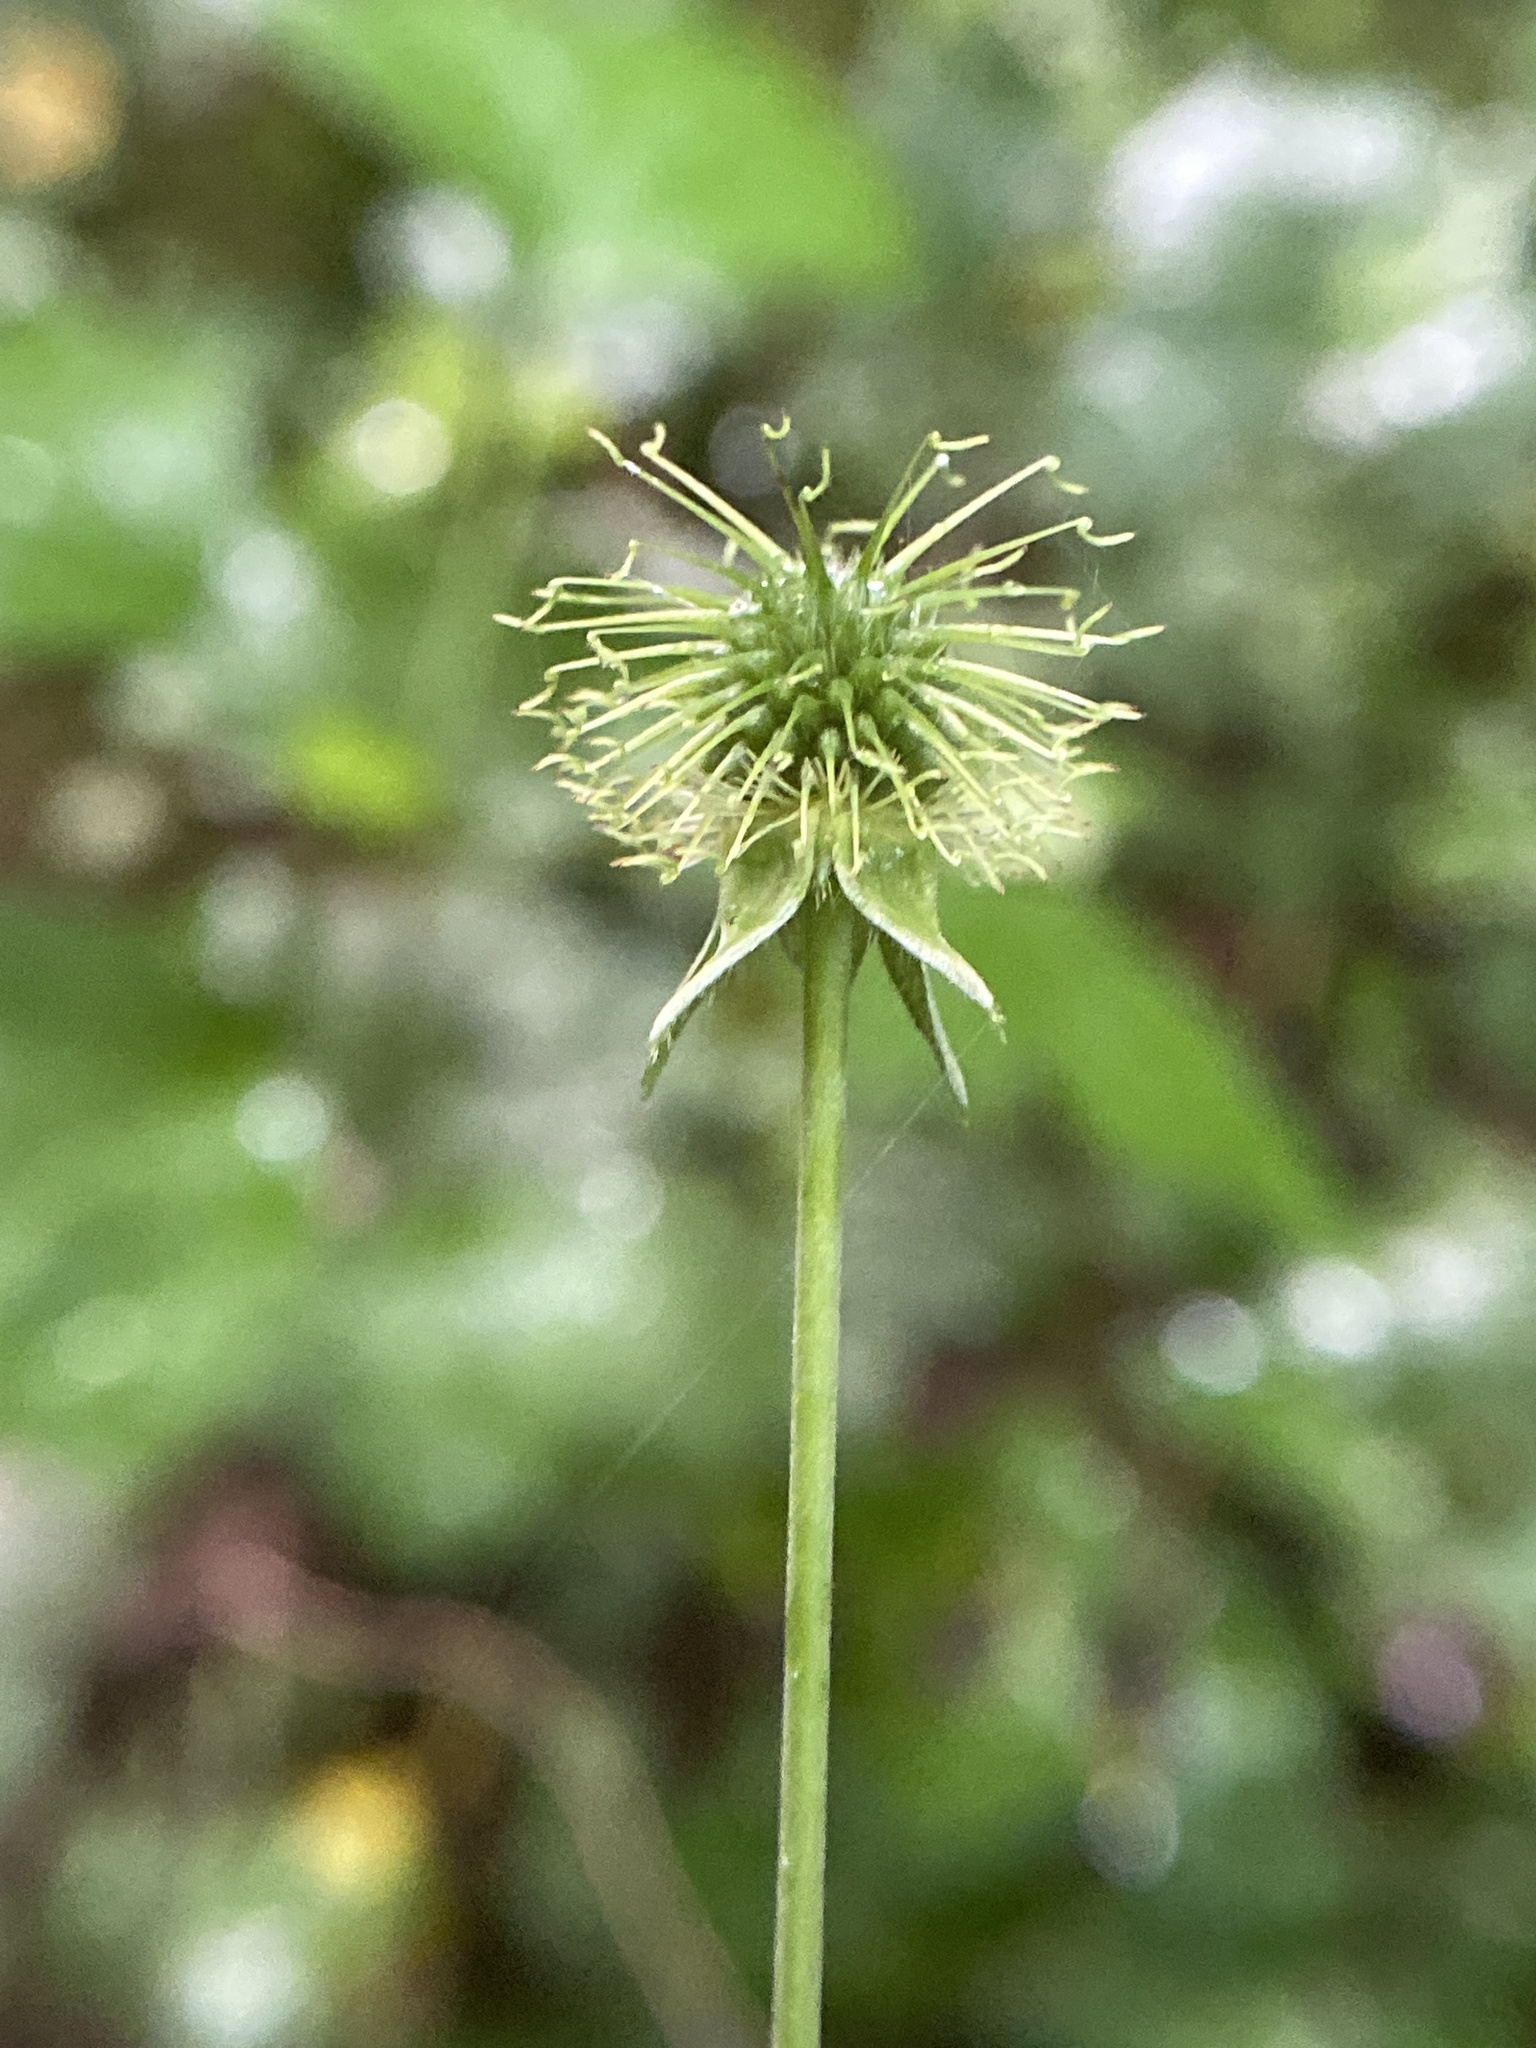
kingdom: Plantae
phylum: Tracheophyta
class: Magnoliopsida
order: Rosales
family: Rosaceae
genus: Geum
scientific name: Geum canadense
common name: White avens
